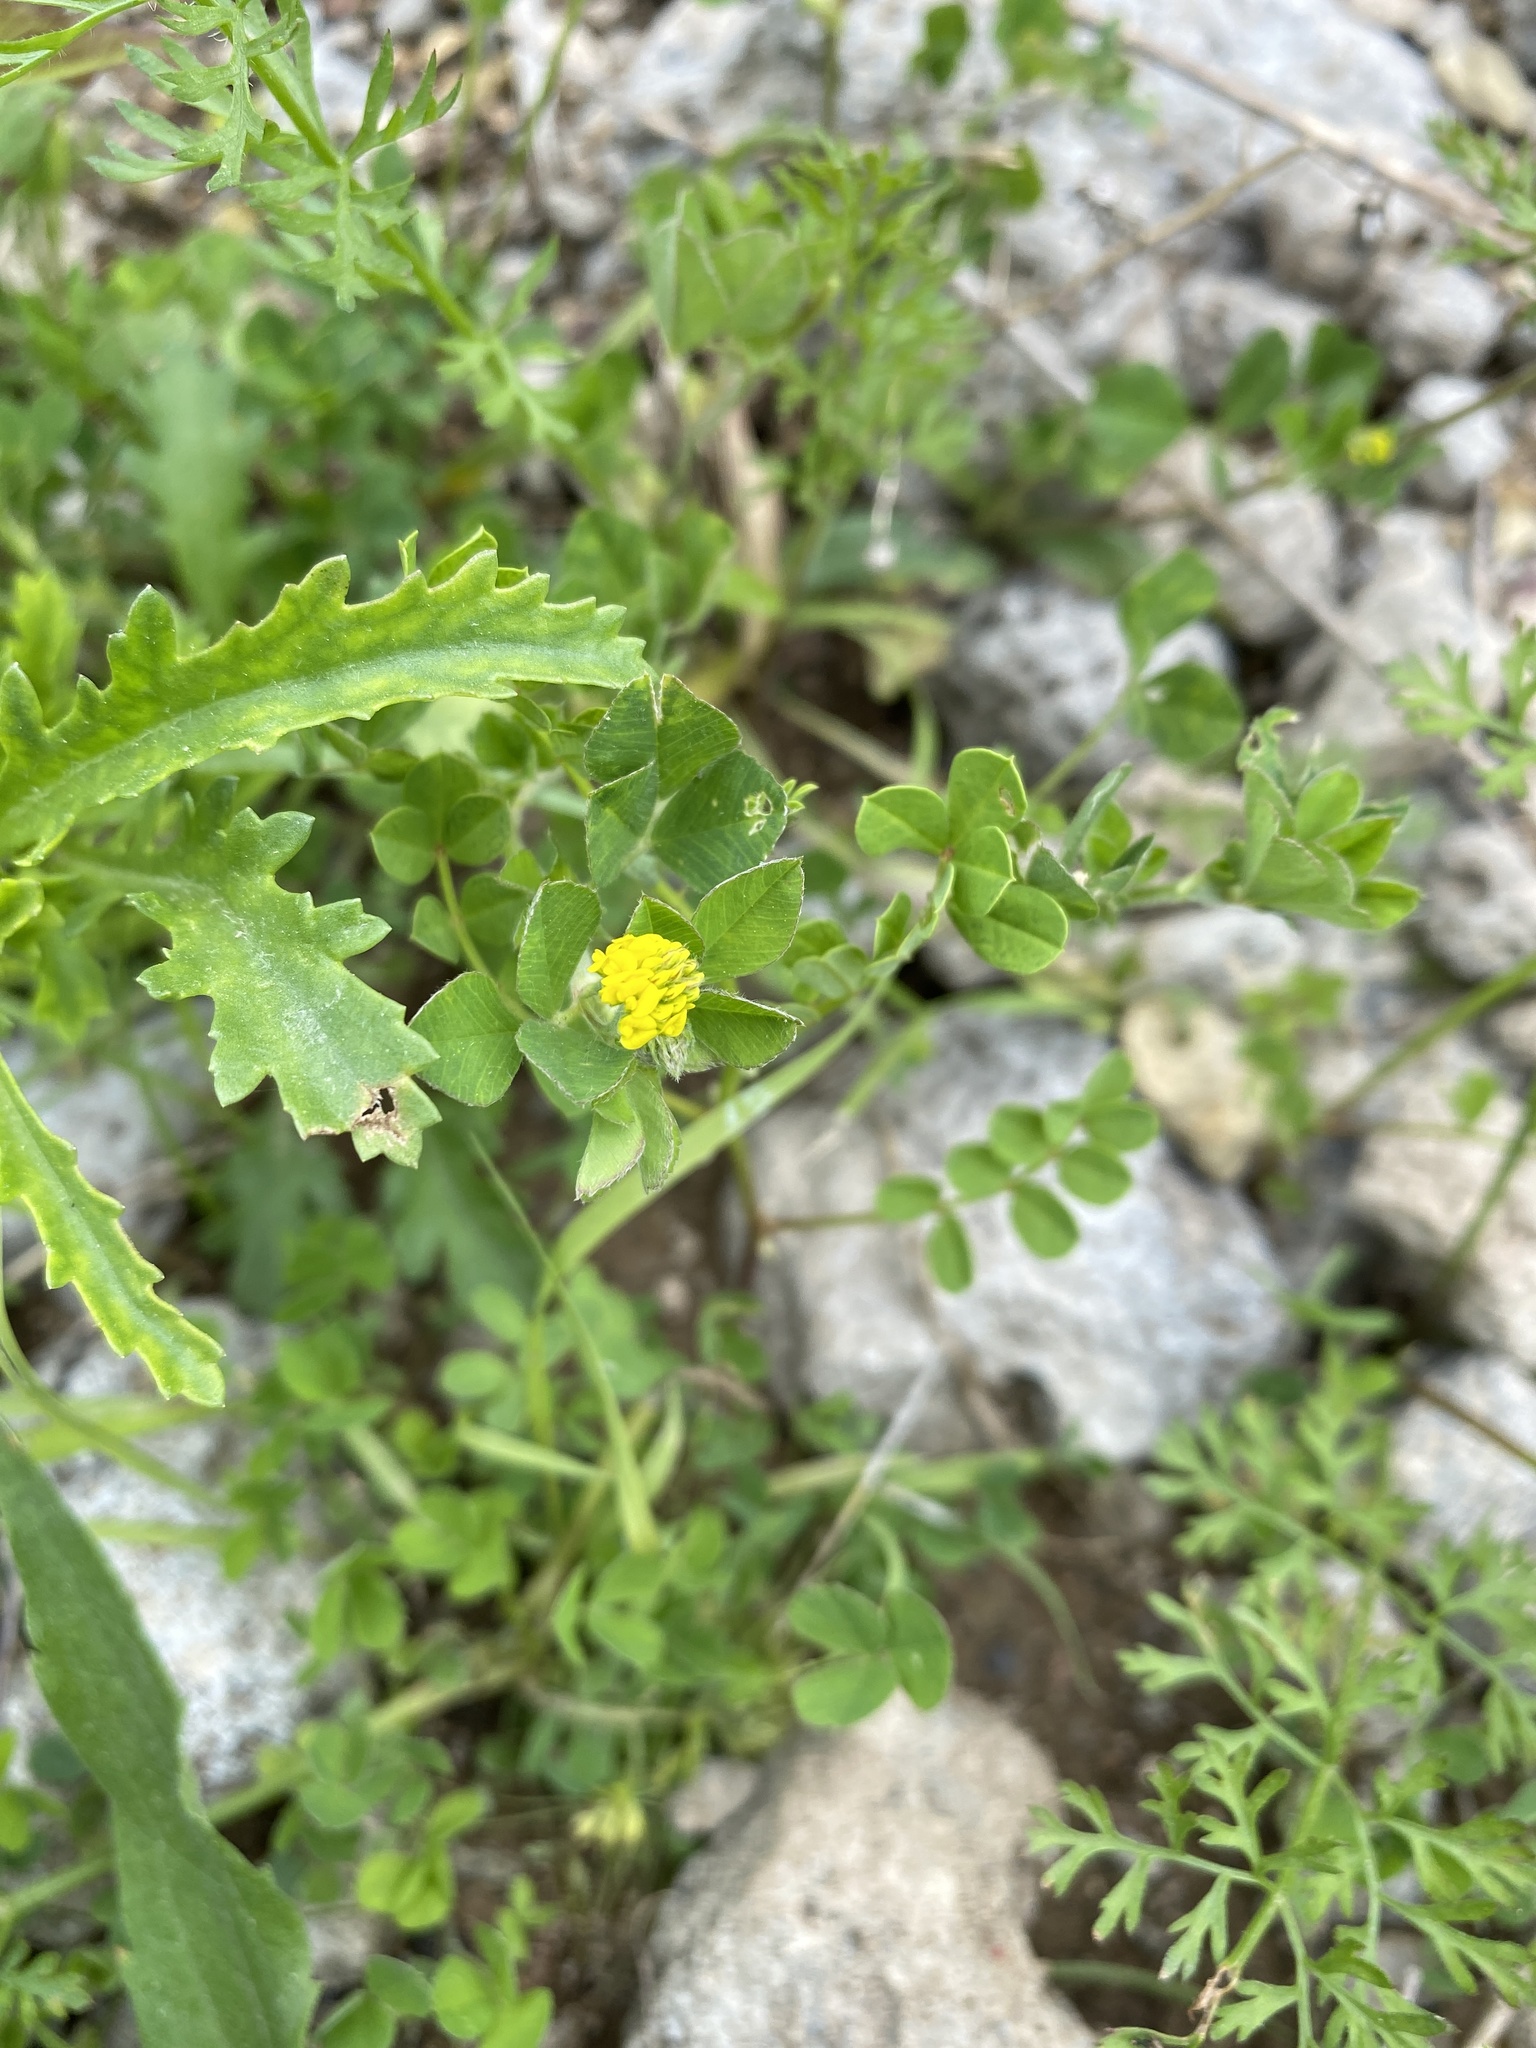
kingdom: Plantae
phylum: Tracheophyta
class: Magnoliopsida
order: Fabales
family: Fabaceae
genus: Medicago
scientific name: Medicago lupulina
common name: Black medick
